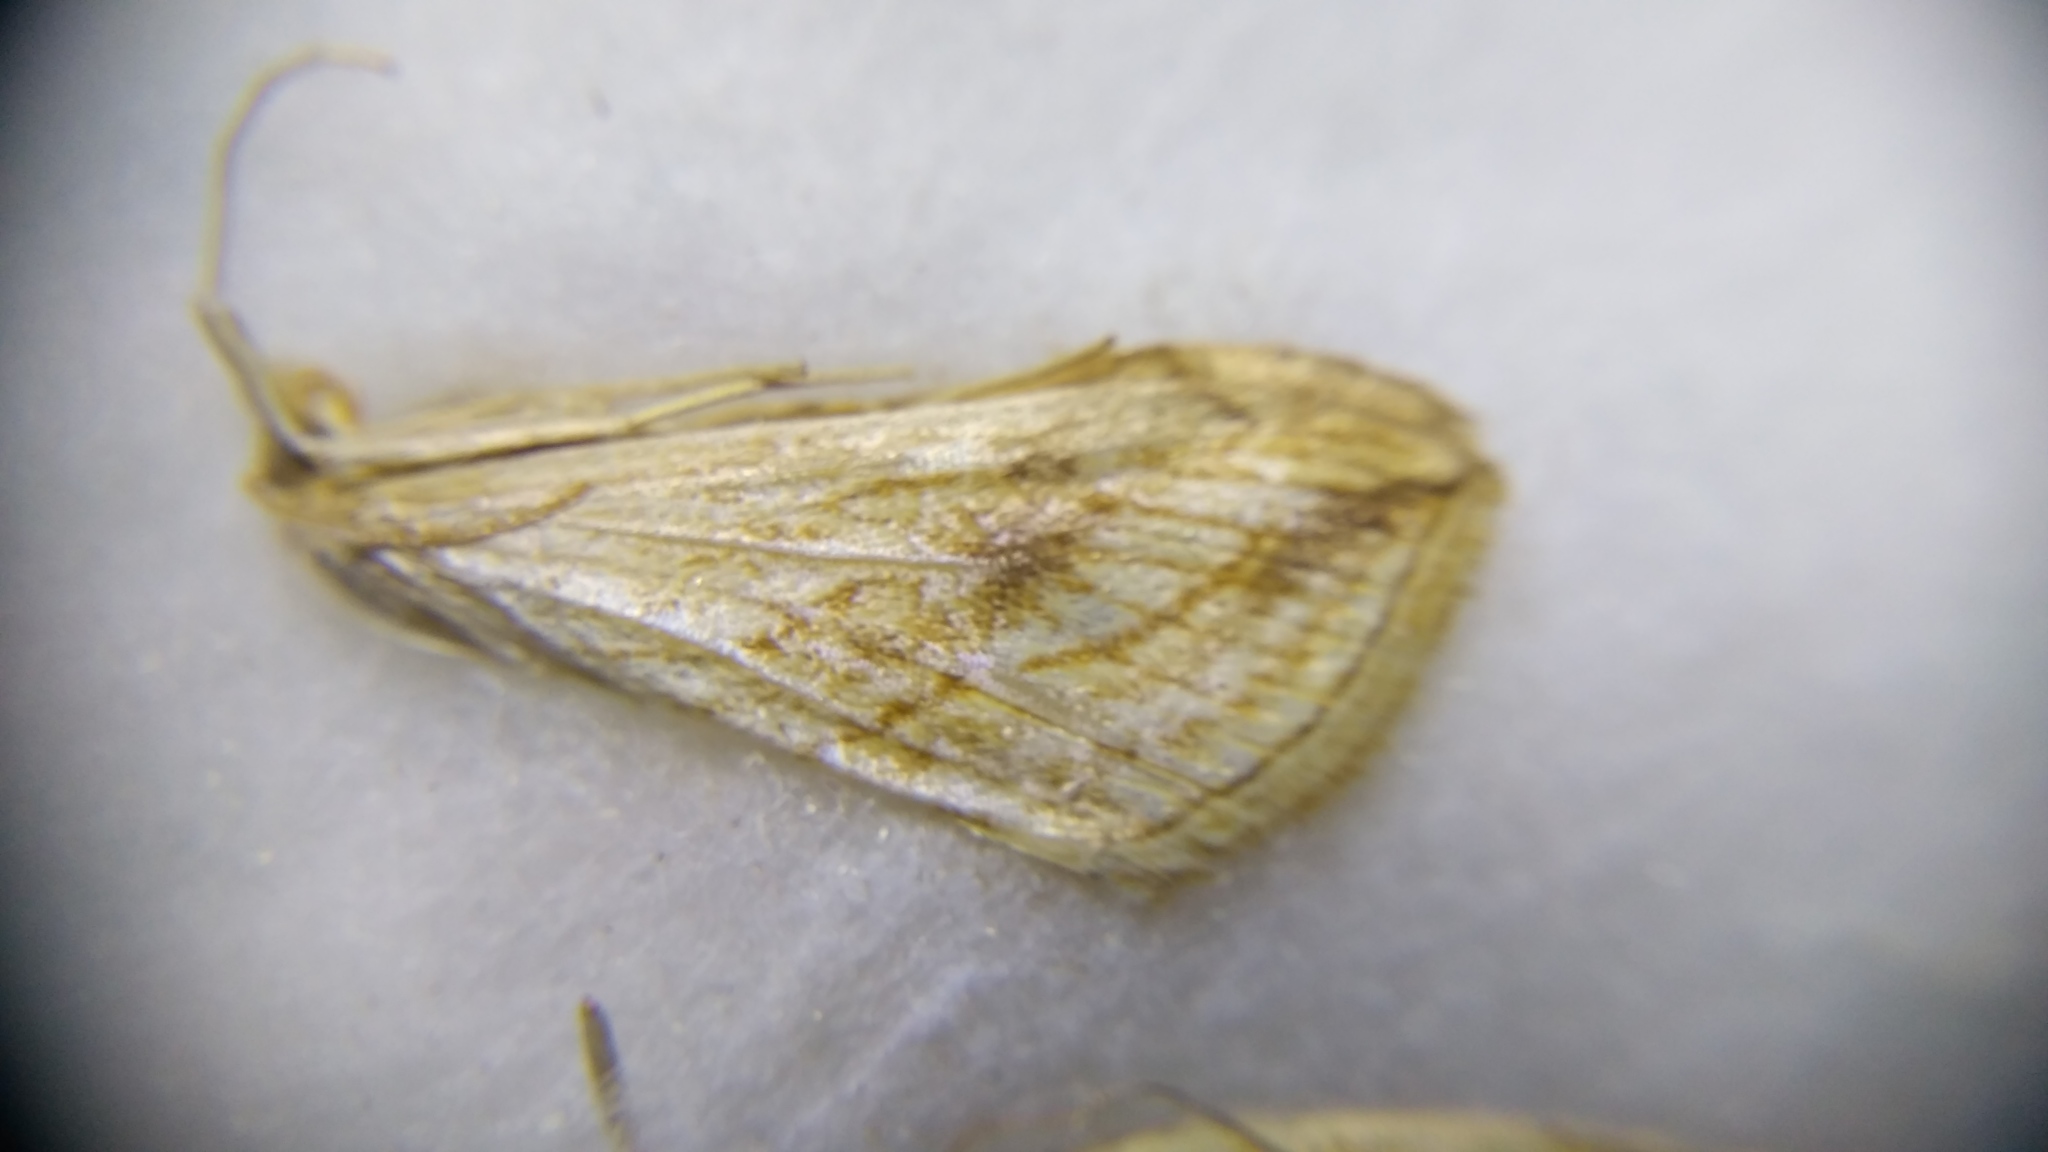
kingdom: Animalia
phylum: Arthropoda
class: Insecta
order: Lepidoptera
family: Crambidae
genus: Evergestis
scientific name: Evergestis forficalis
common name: Garden pebble
